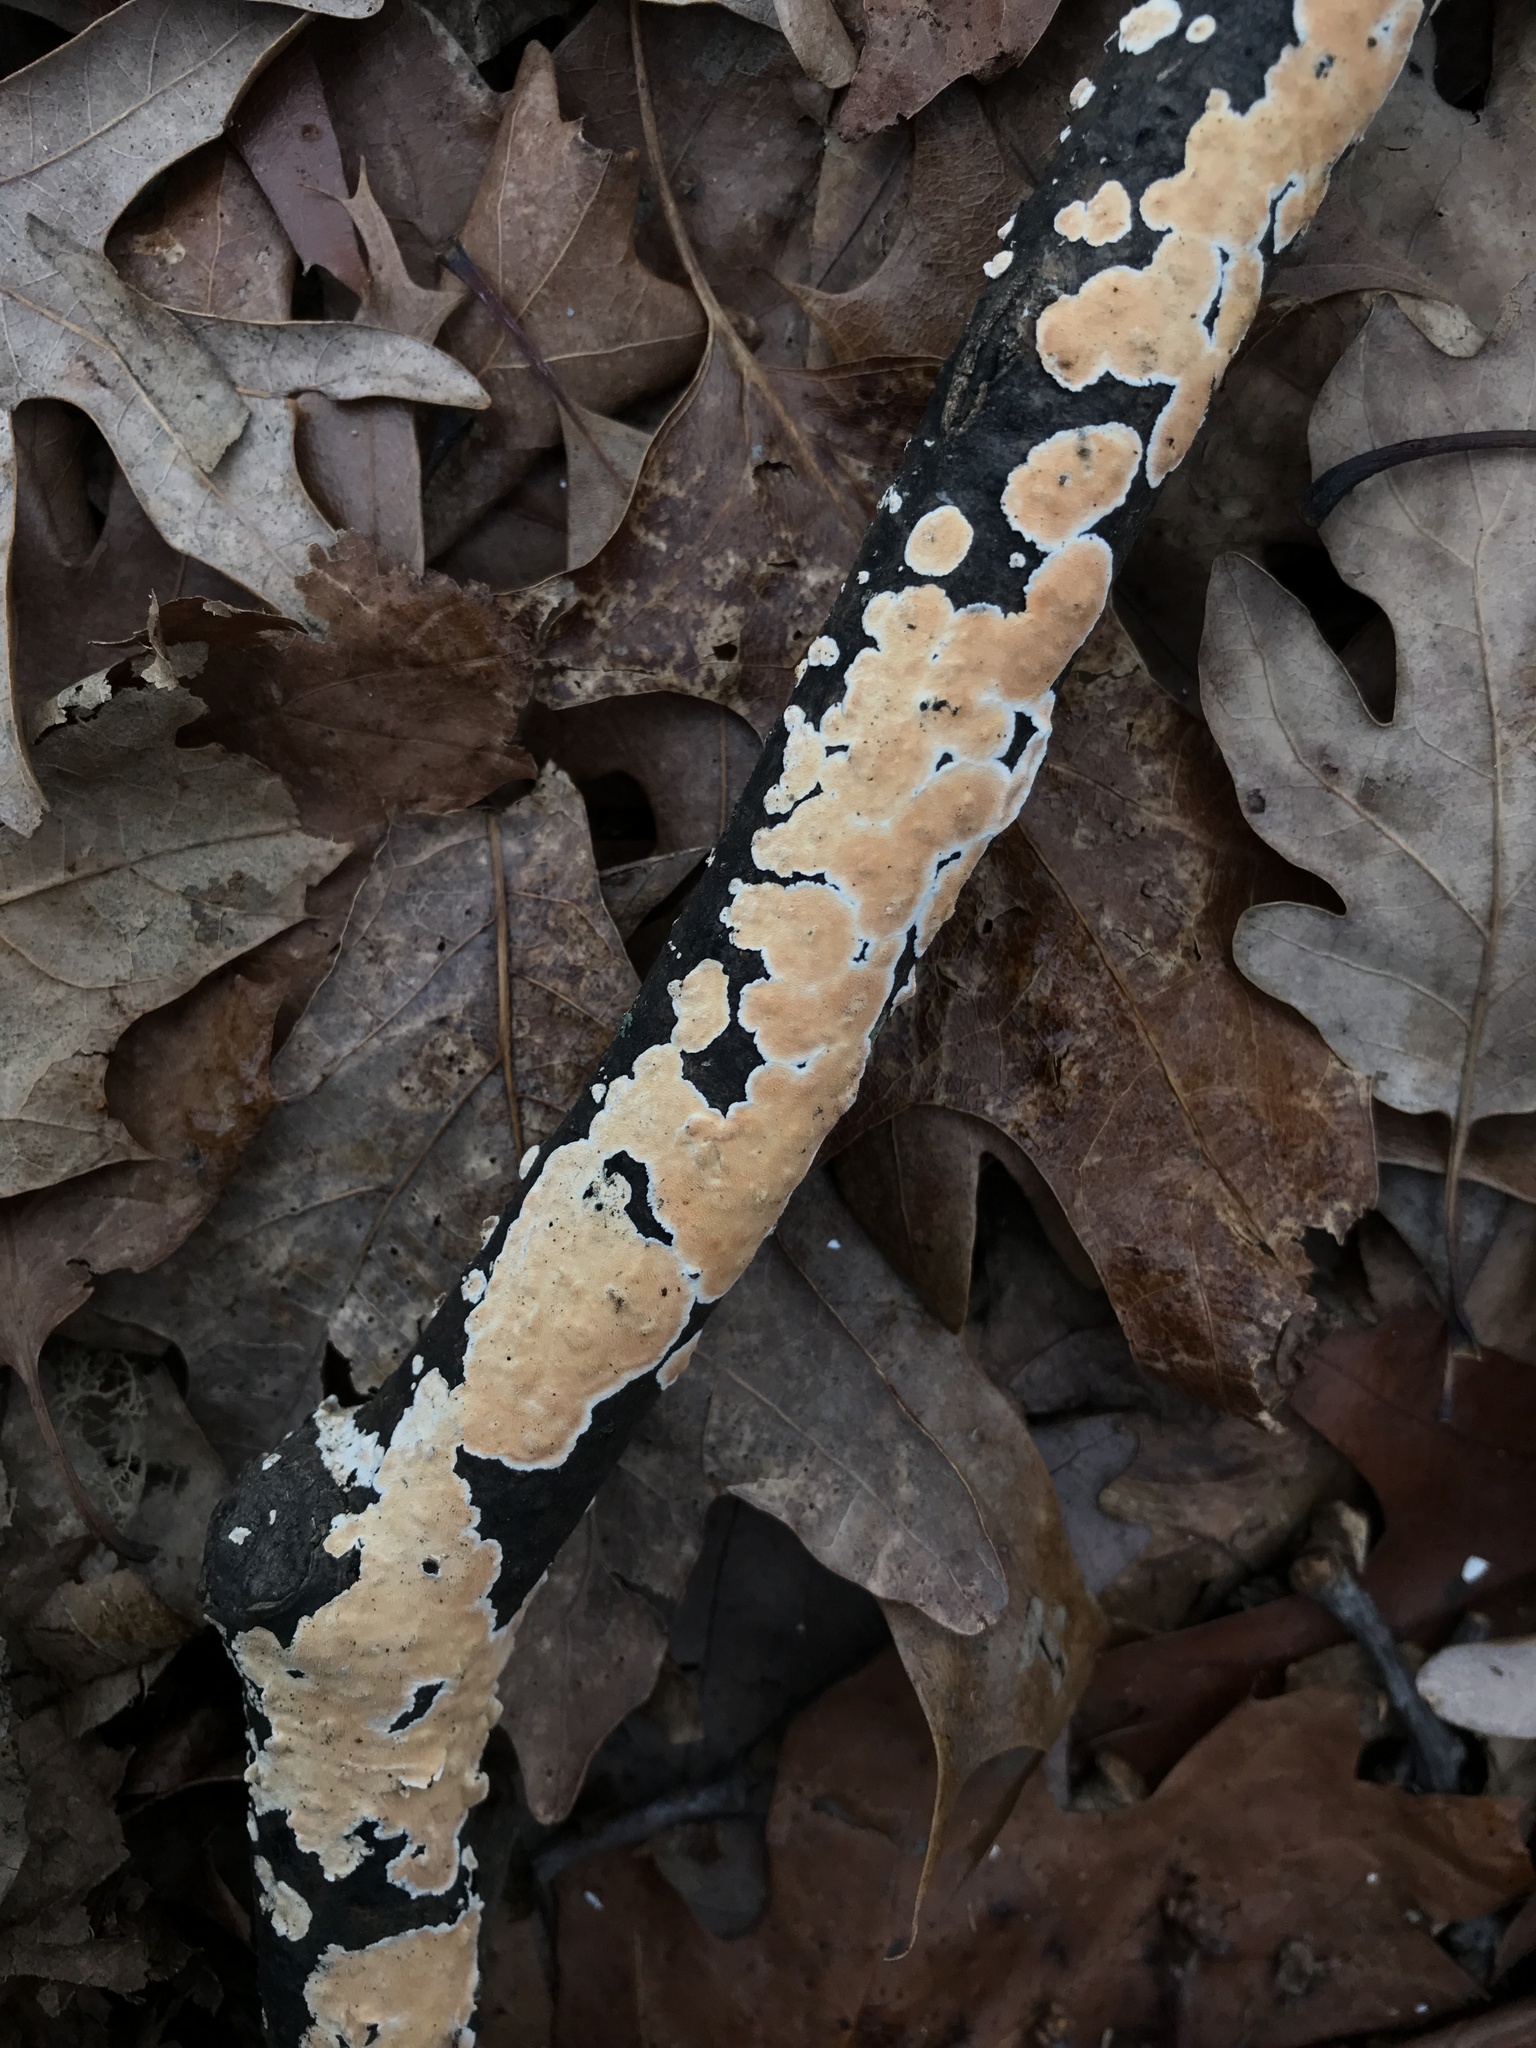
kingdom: Fungi
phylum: Basidiomycota
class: Agaricomycetes
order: Polyporales
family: Steccherinaceae
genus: Steccherinum
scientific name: Steccherinum ochraceum
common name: Ochre spreading tooth
